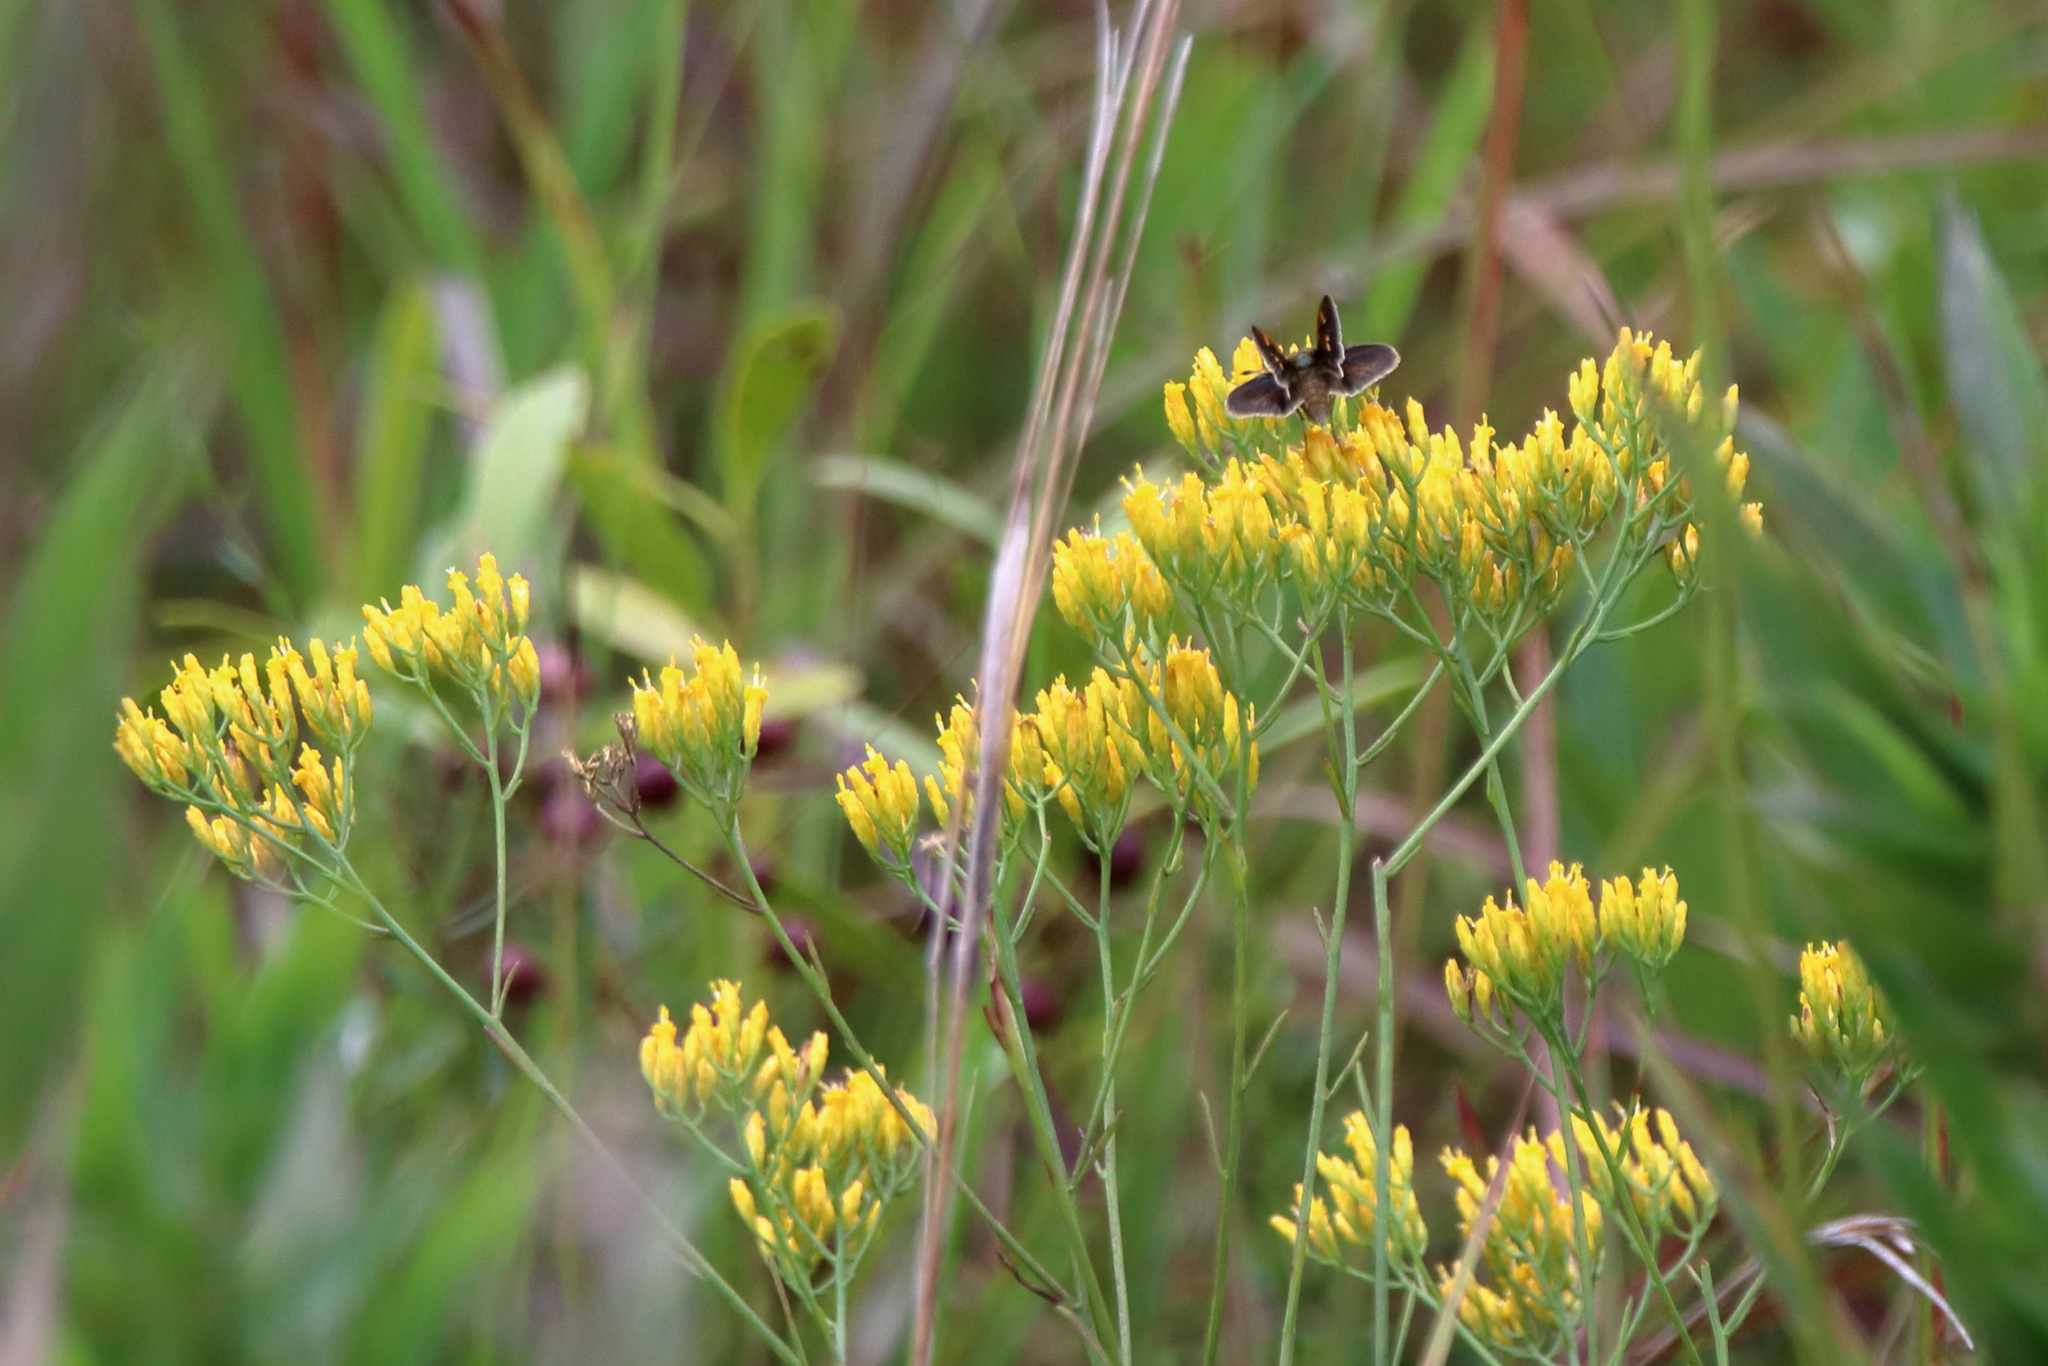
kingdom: Plantae
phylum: Tracheophyta
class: Magnoliopsida
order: Asterales
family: Asteraceae
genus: Bigelowia
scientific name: Bigelowia nudata
